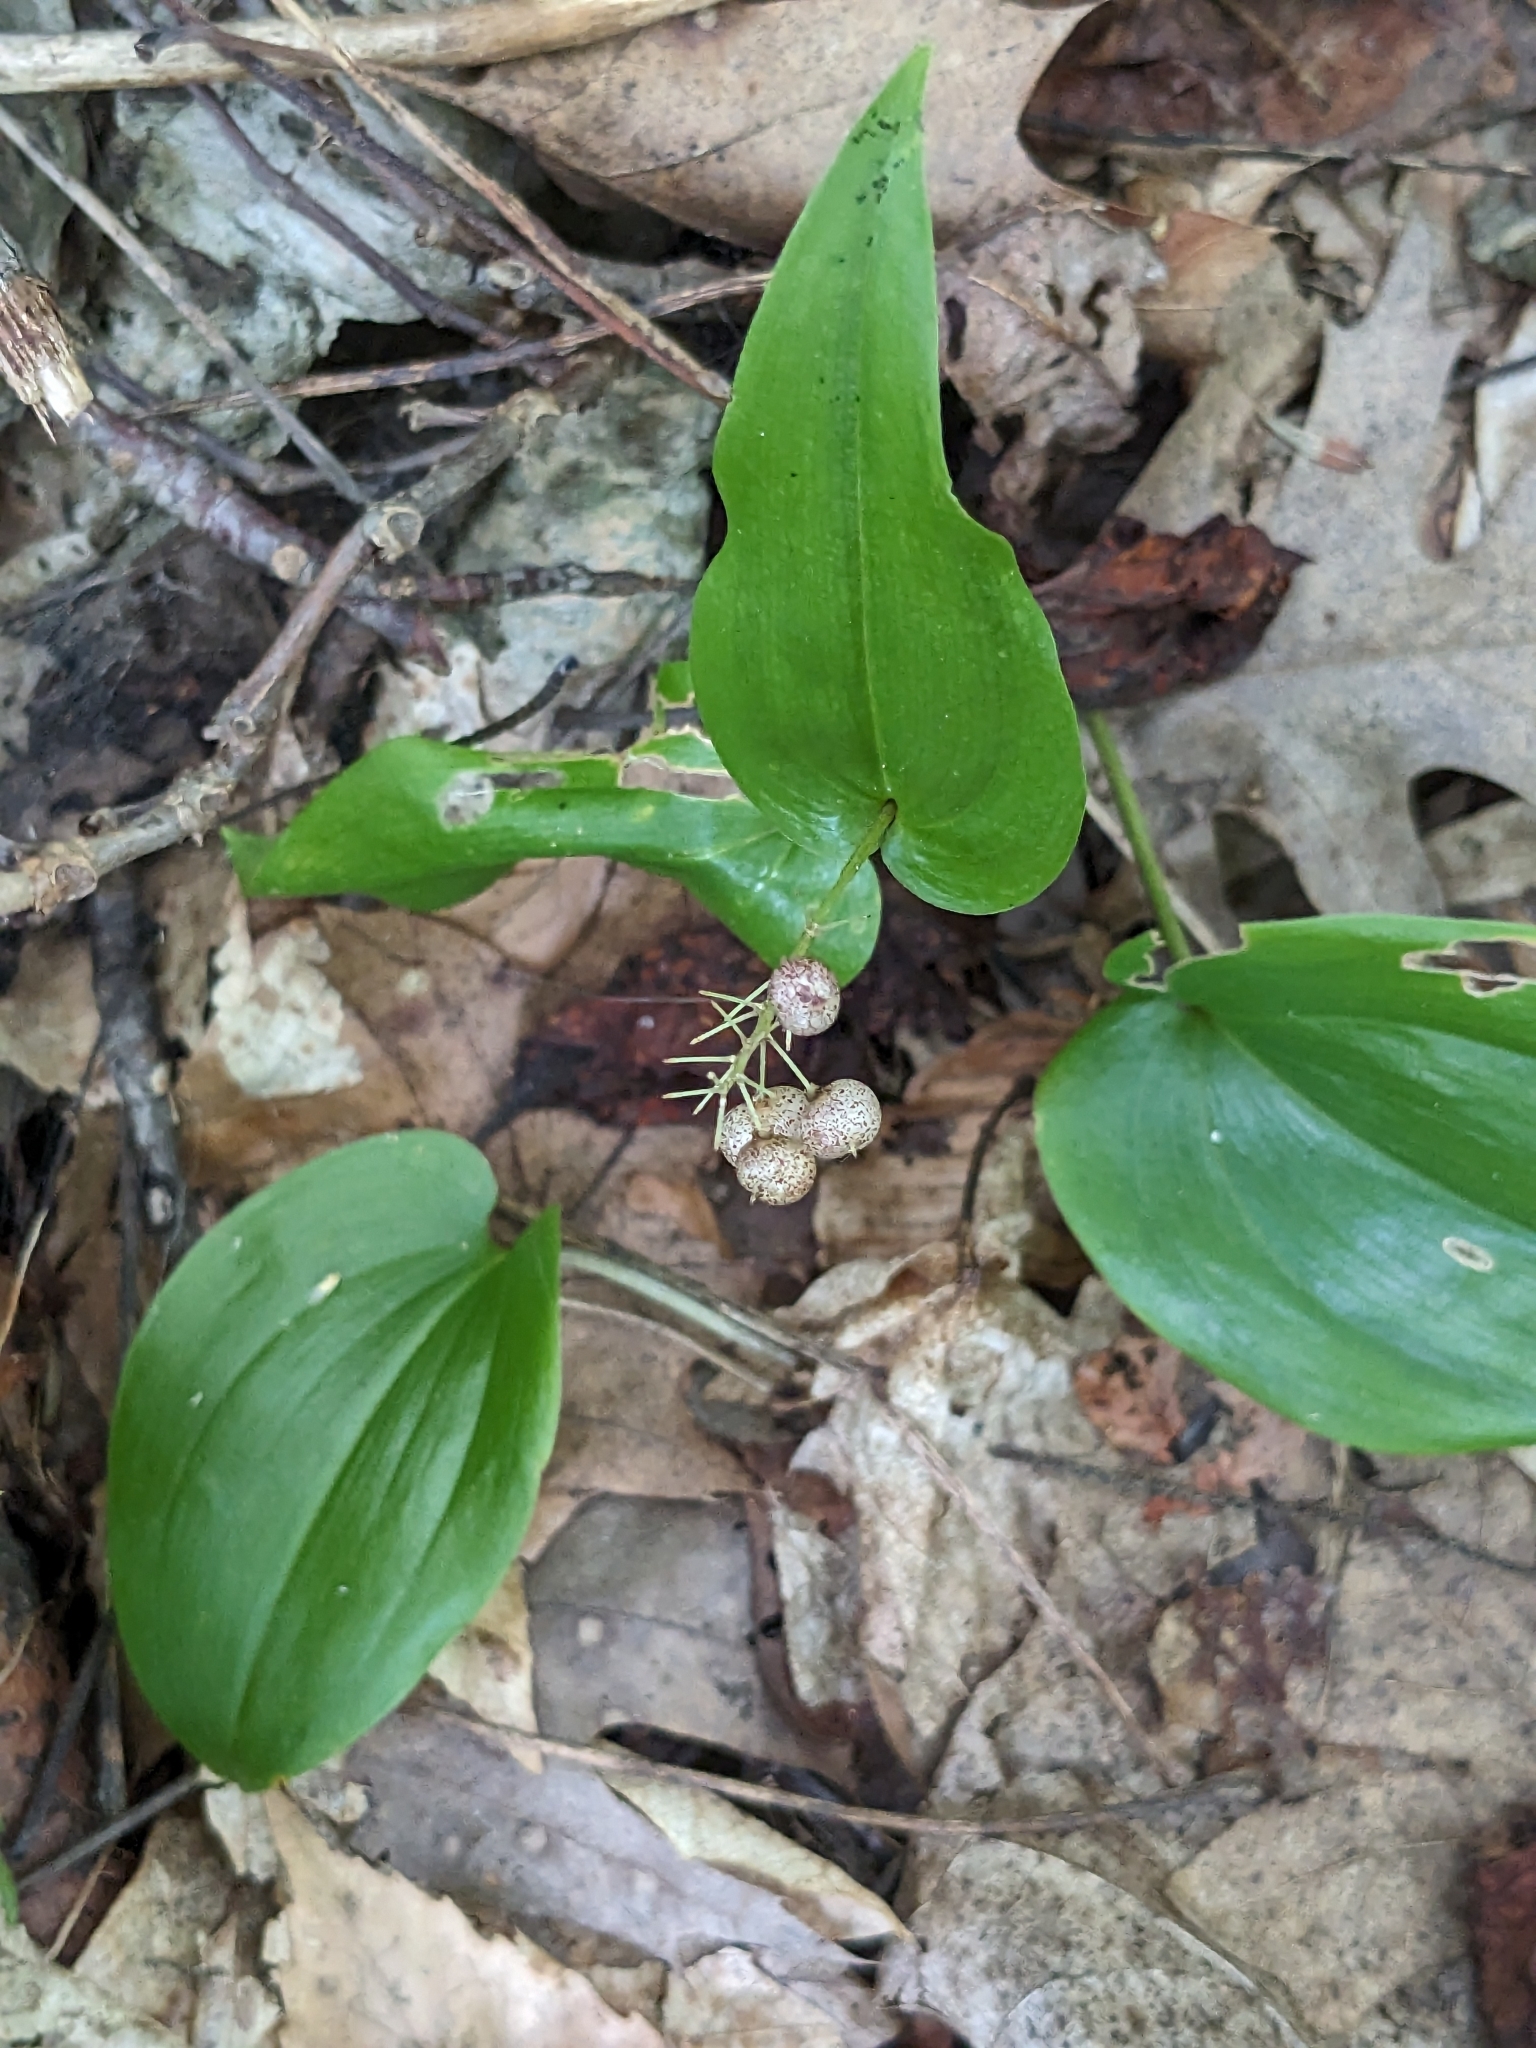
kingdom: Plantae
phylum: Tracheophyta
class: Liliopsida
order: Asparagales
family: Asparagaceae
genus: Maianthemum
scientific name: Maianthemum canadense
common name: False lily-of-the-valley
